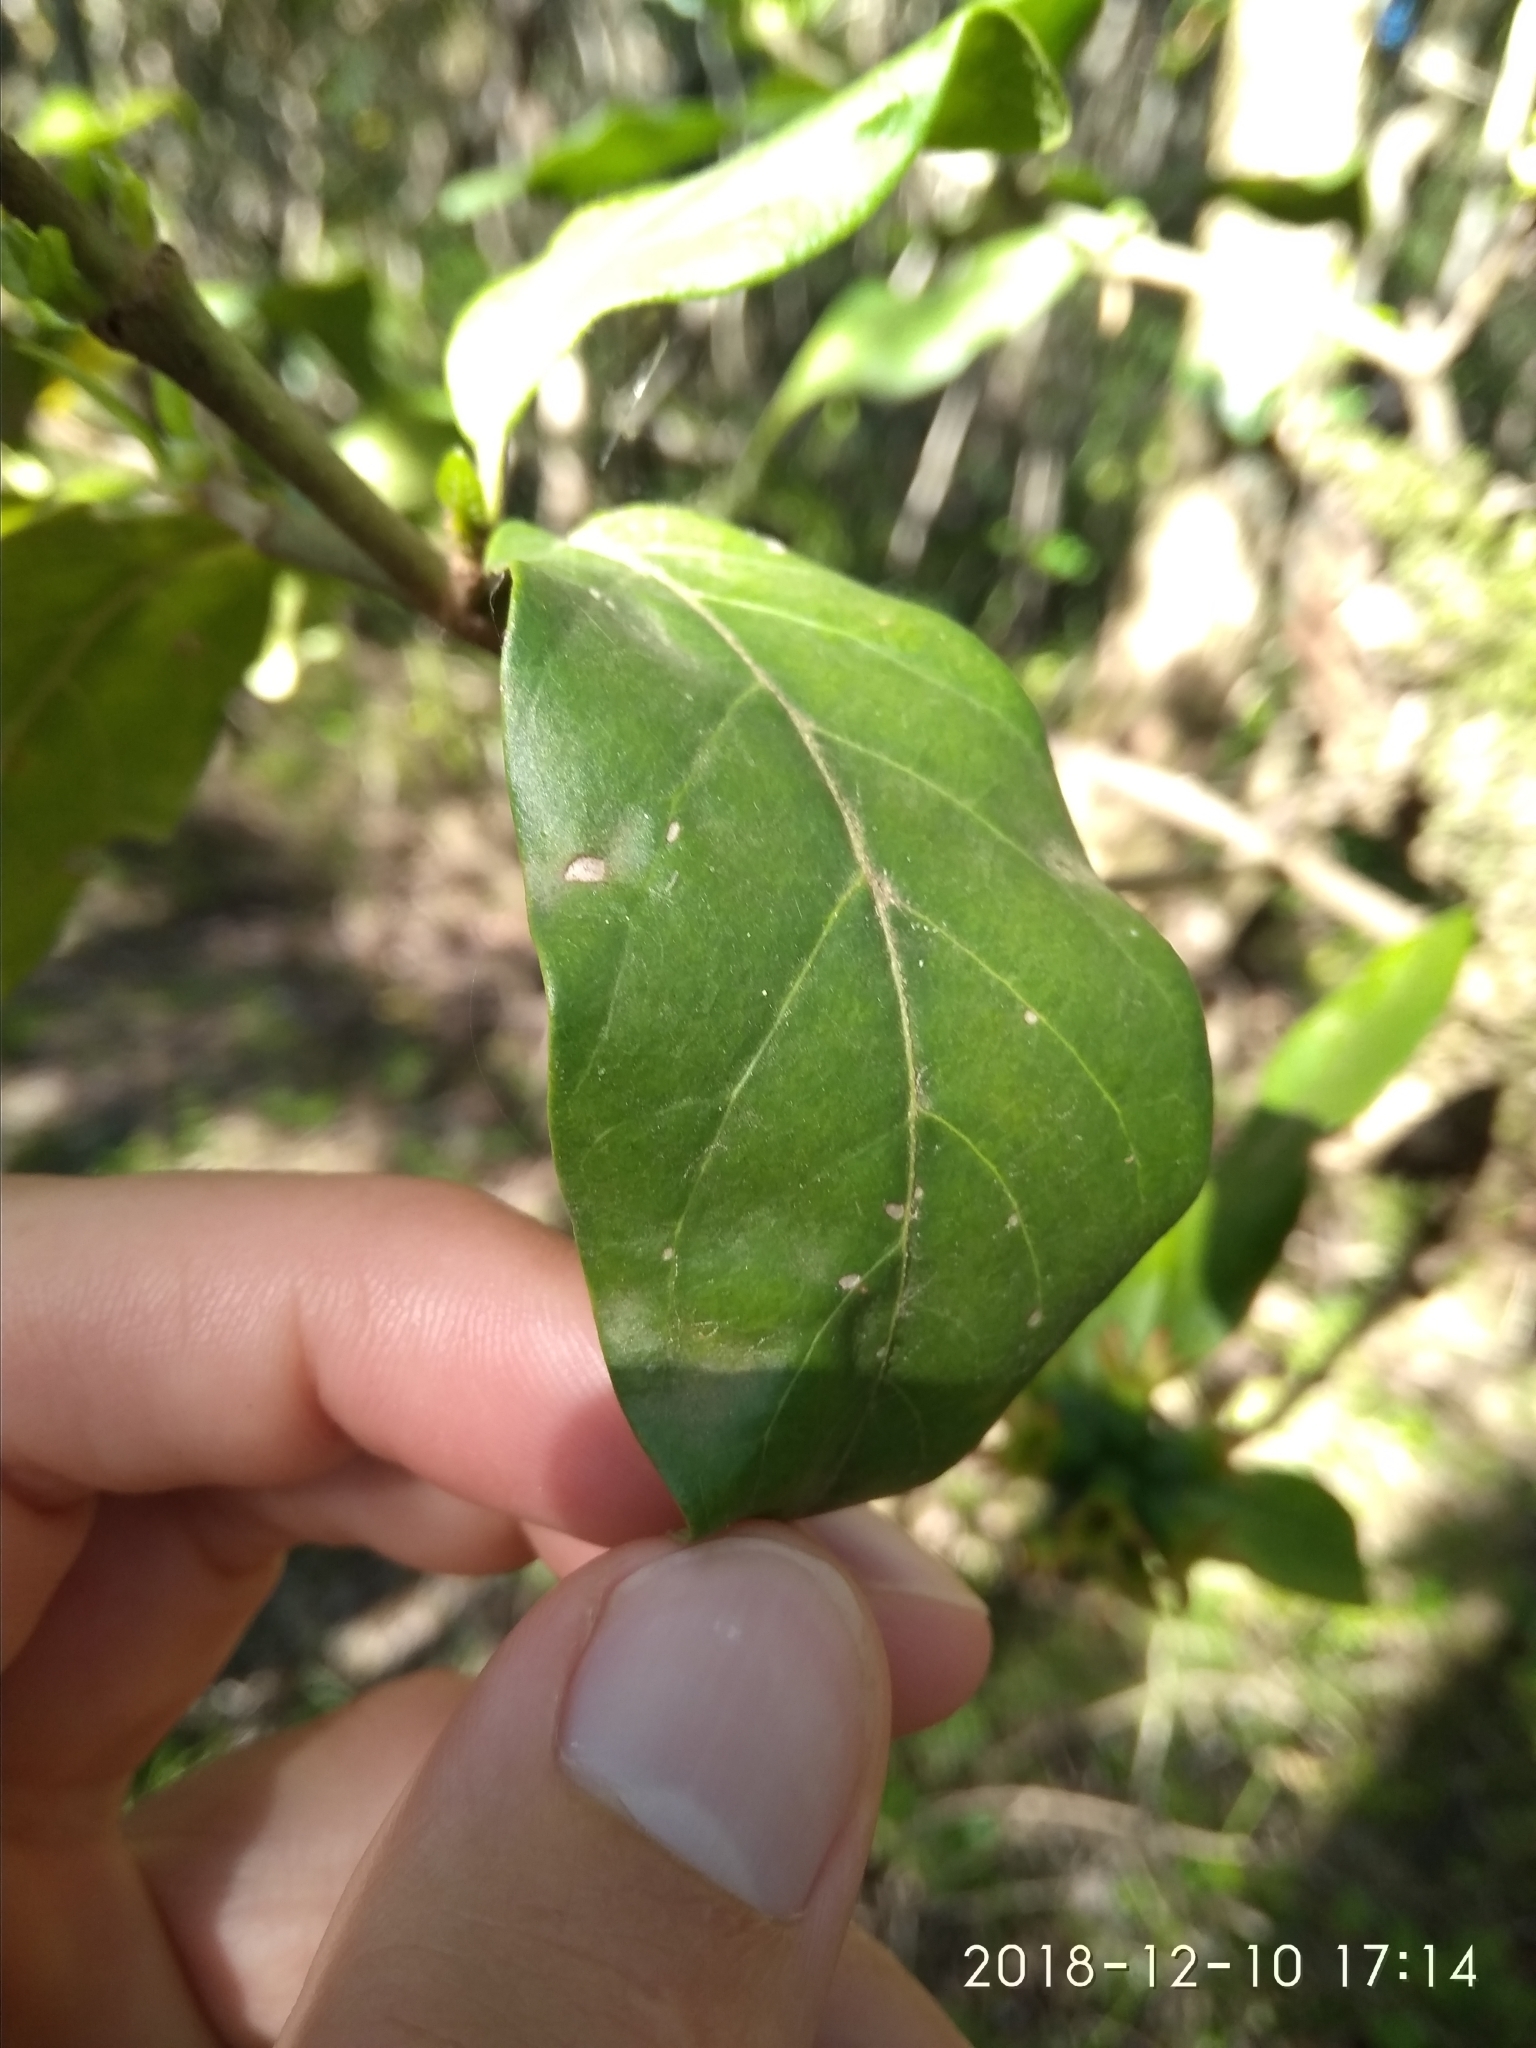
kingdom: Plantae
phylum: Tracheophyta
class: Magnoliopsida
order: Gentianales
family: Rubiaceae
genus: Burchellia
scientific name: Burchellia bubalina
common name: Wild pomegranate
